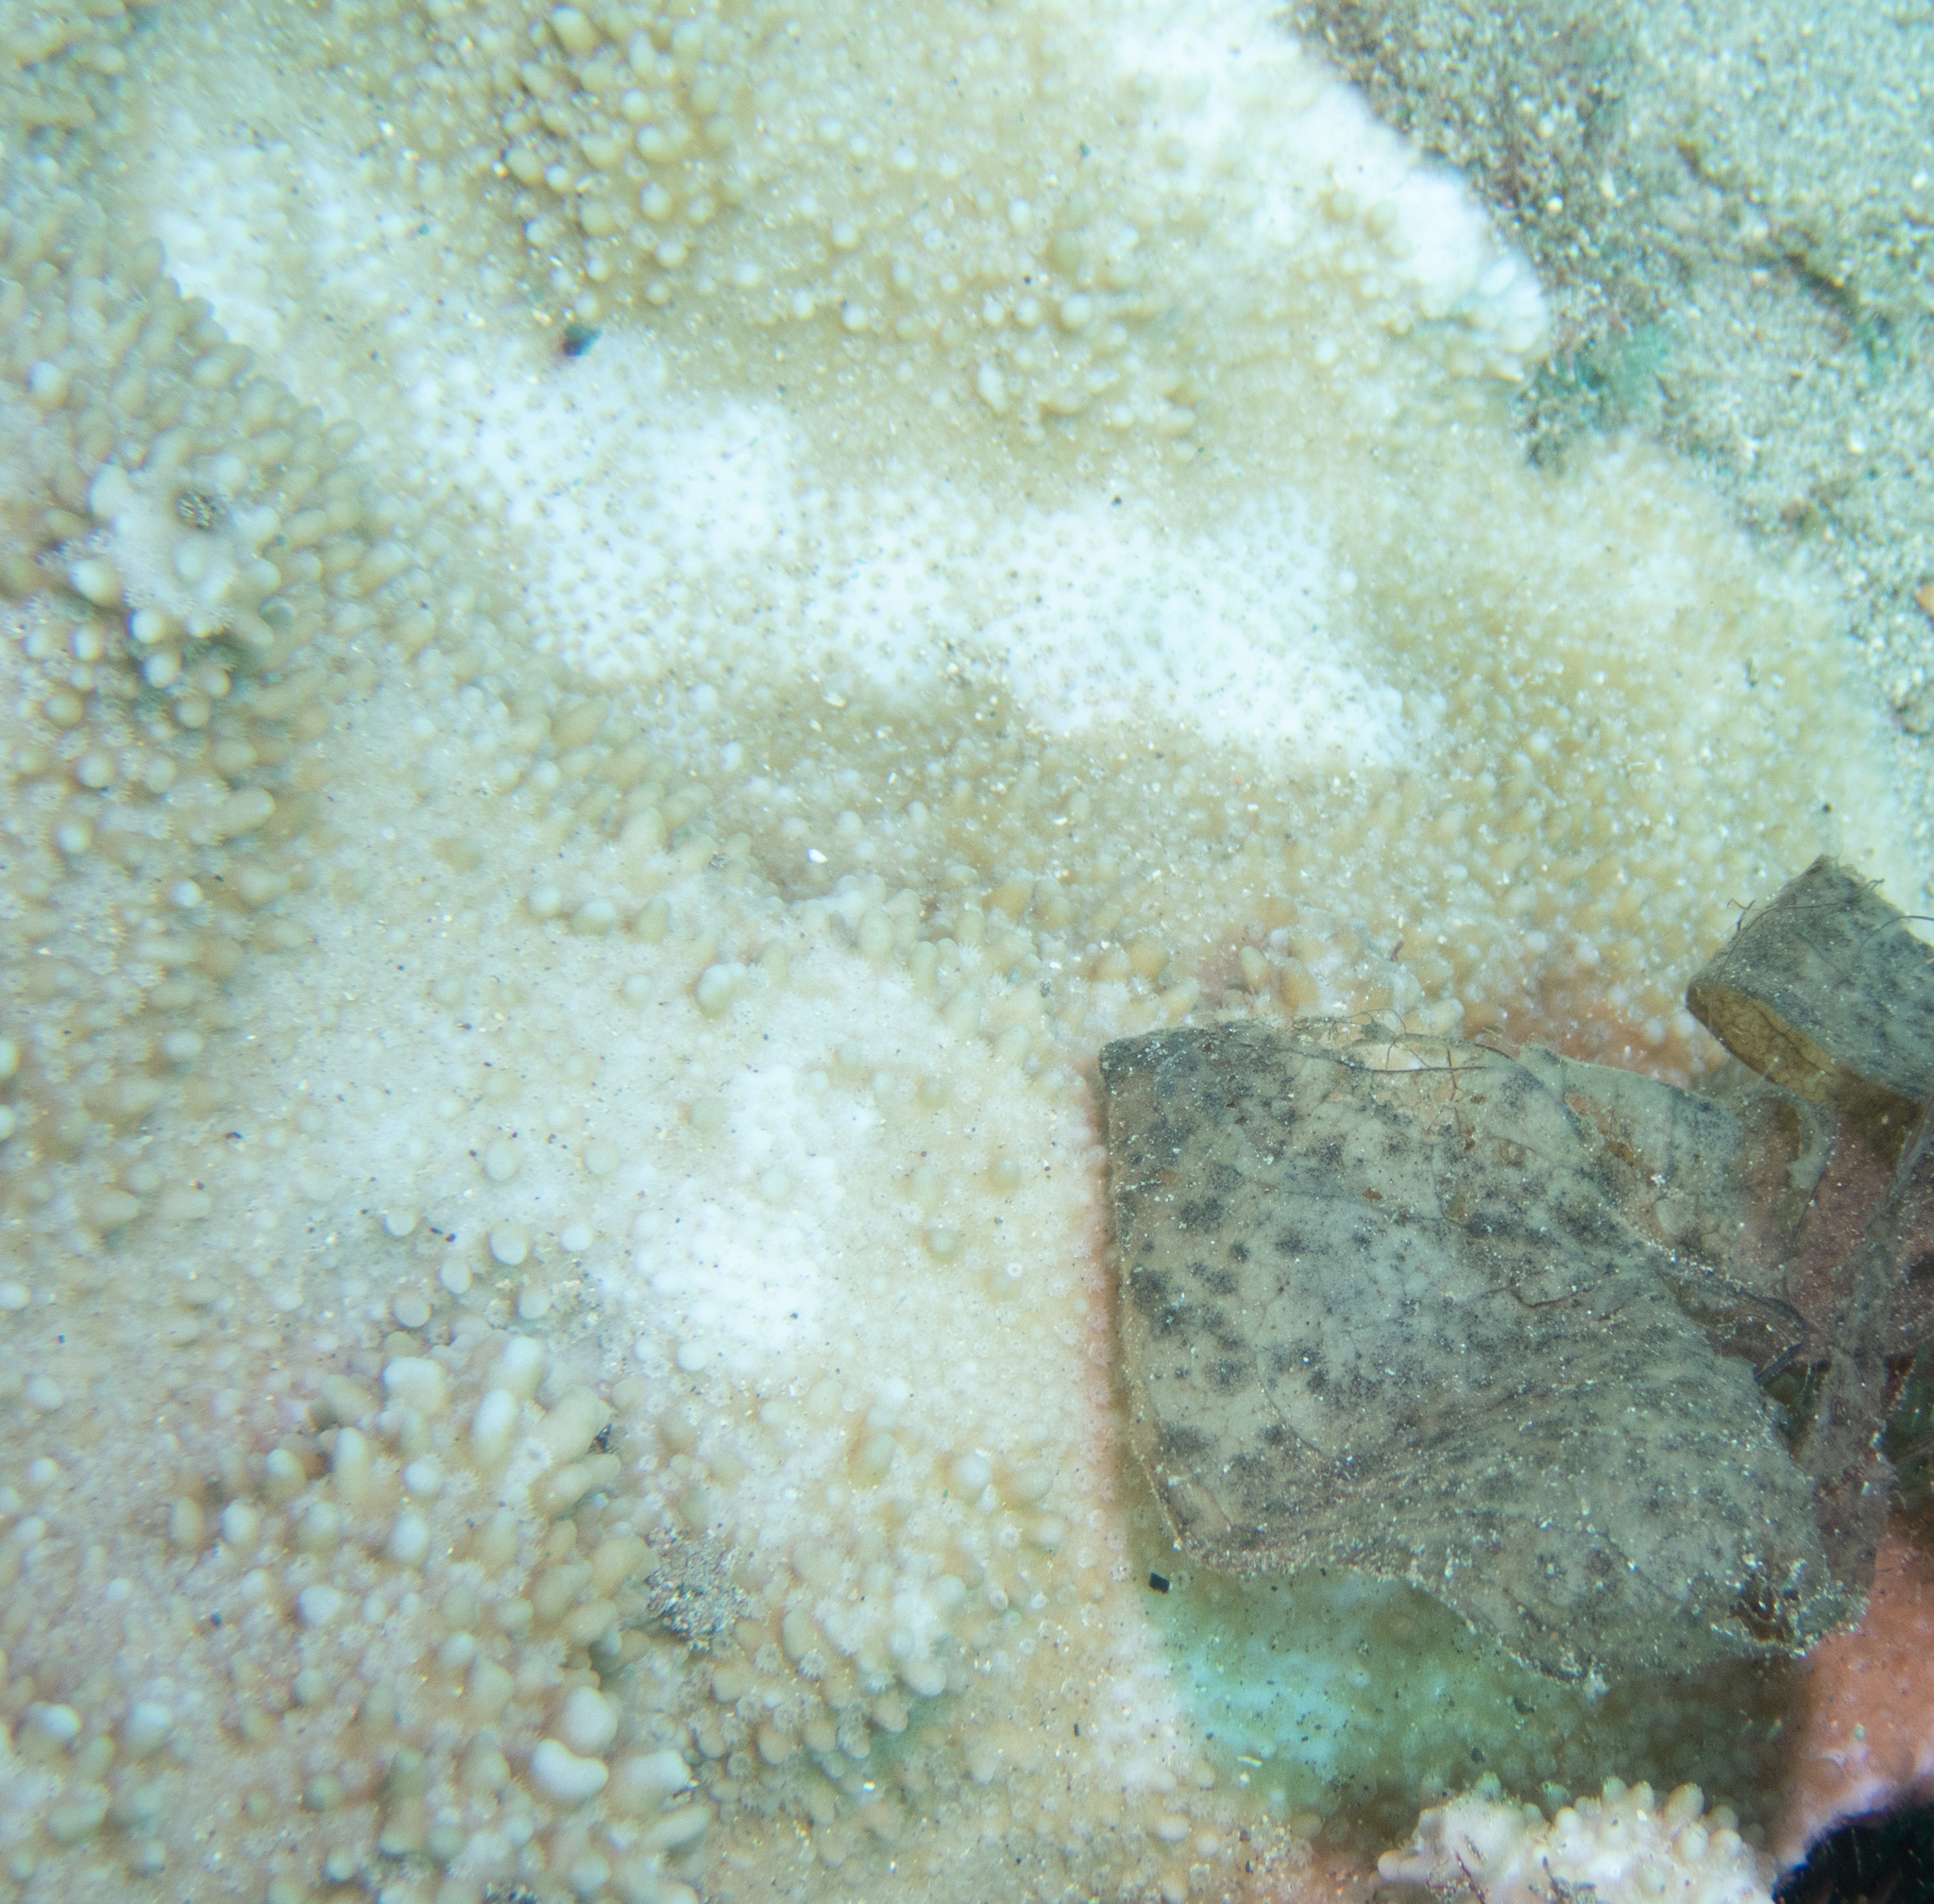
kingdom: Animalia
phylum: Cnidaria
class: Anthozoa
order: Scleractinia
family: Acroporidae
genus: Montipora
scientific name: Montipora capitata
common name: Pore coral
